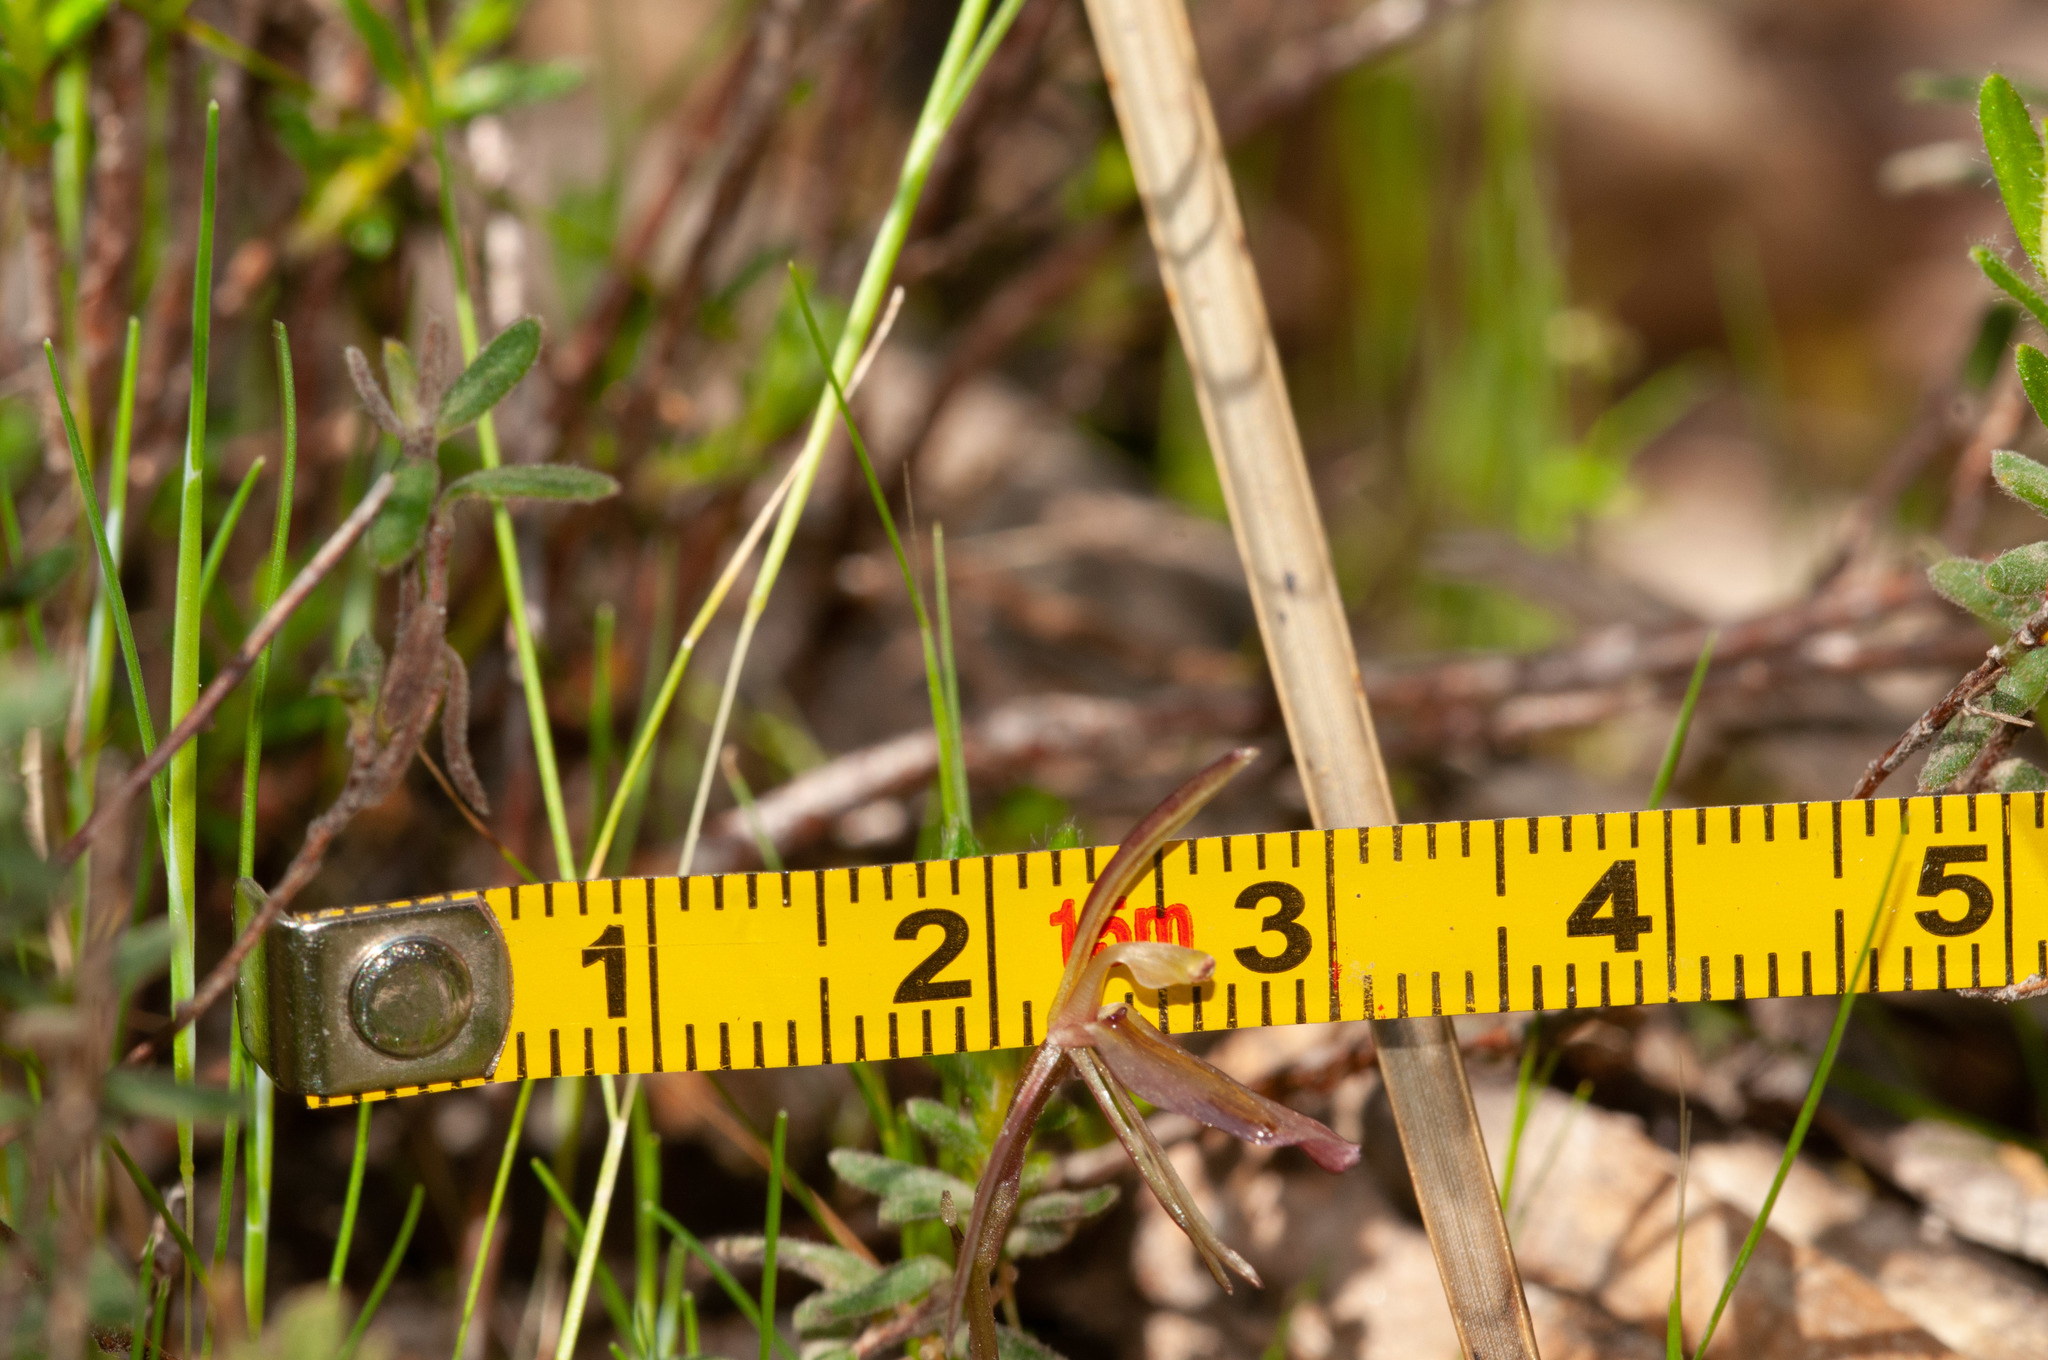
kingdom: Plantae
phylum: Tracheophyta
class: Liliopsida
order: Asparagales
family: Orchidaceae
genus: Cyrtostylis
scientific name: Cyrtostylis robusta
